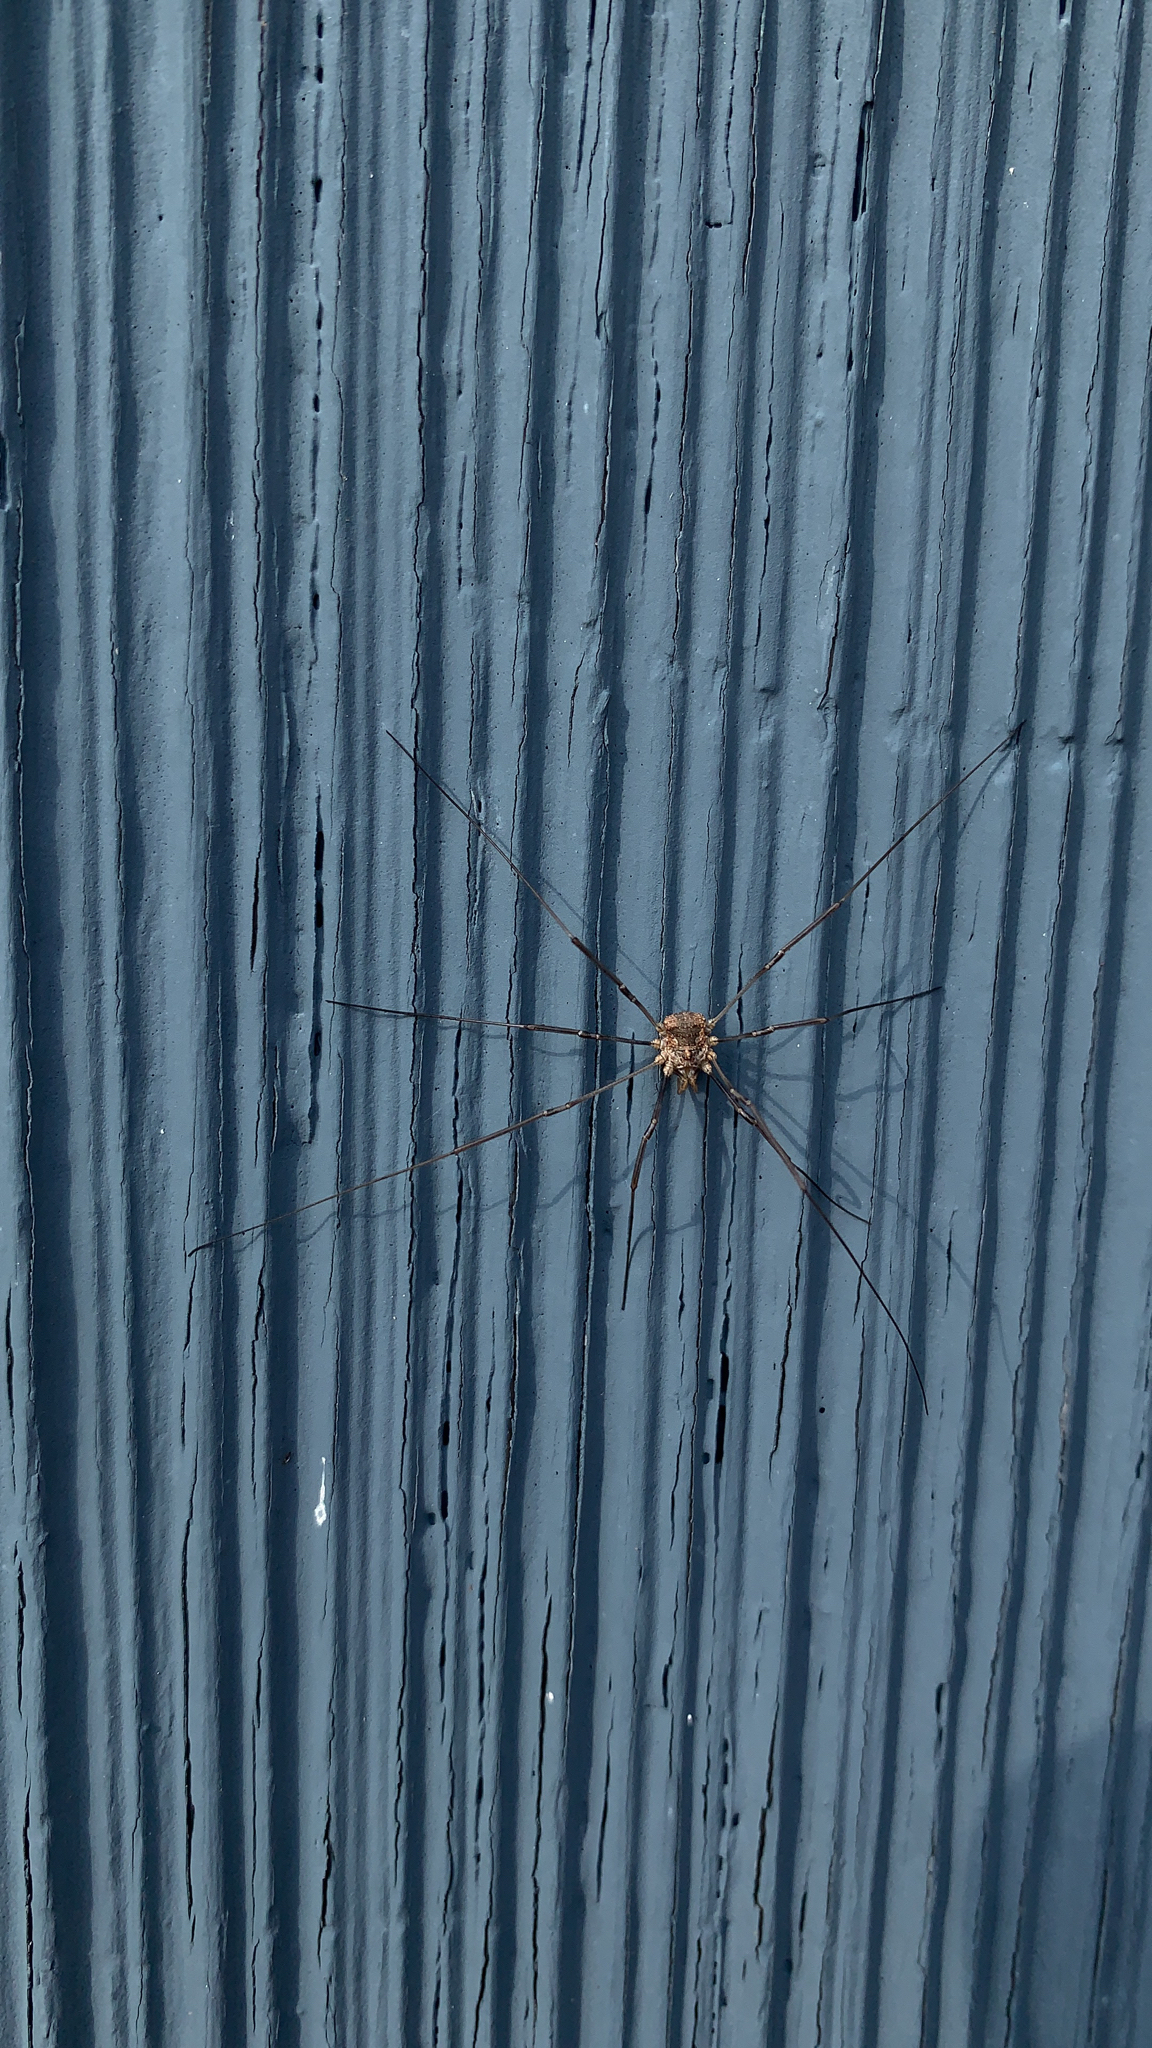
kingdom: Animalia
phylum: Arthropoda
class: Arachnida
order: Opiliones
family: Phalangiidae
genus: Phalangium
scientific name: Phalangium opilio
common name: Daddy longleg
